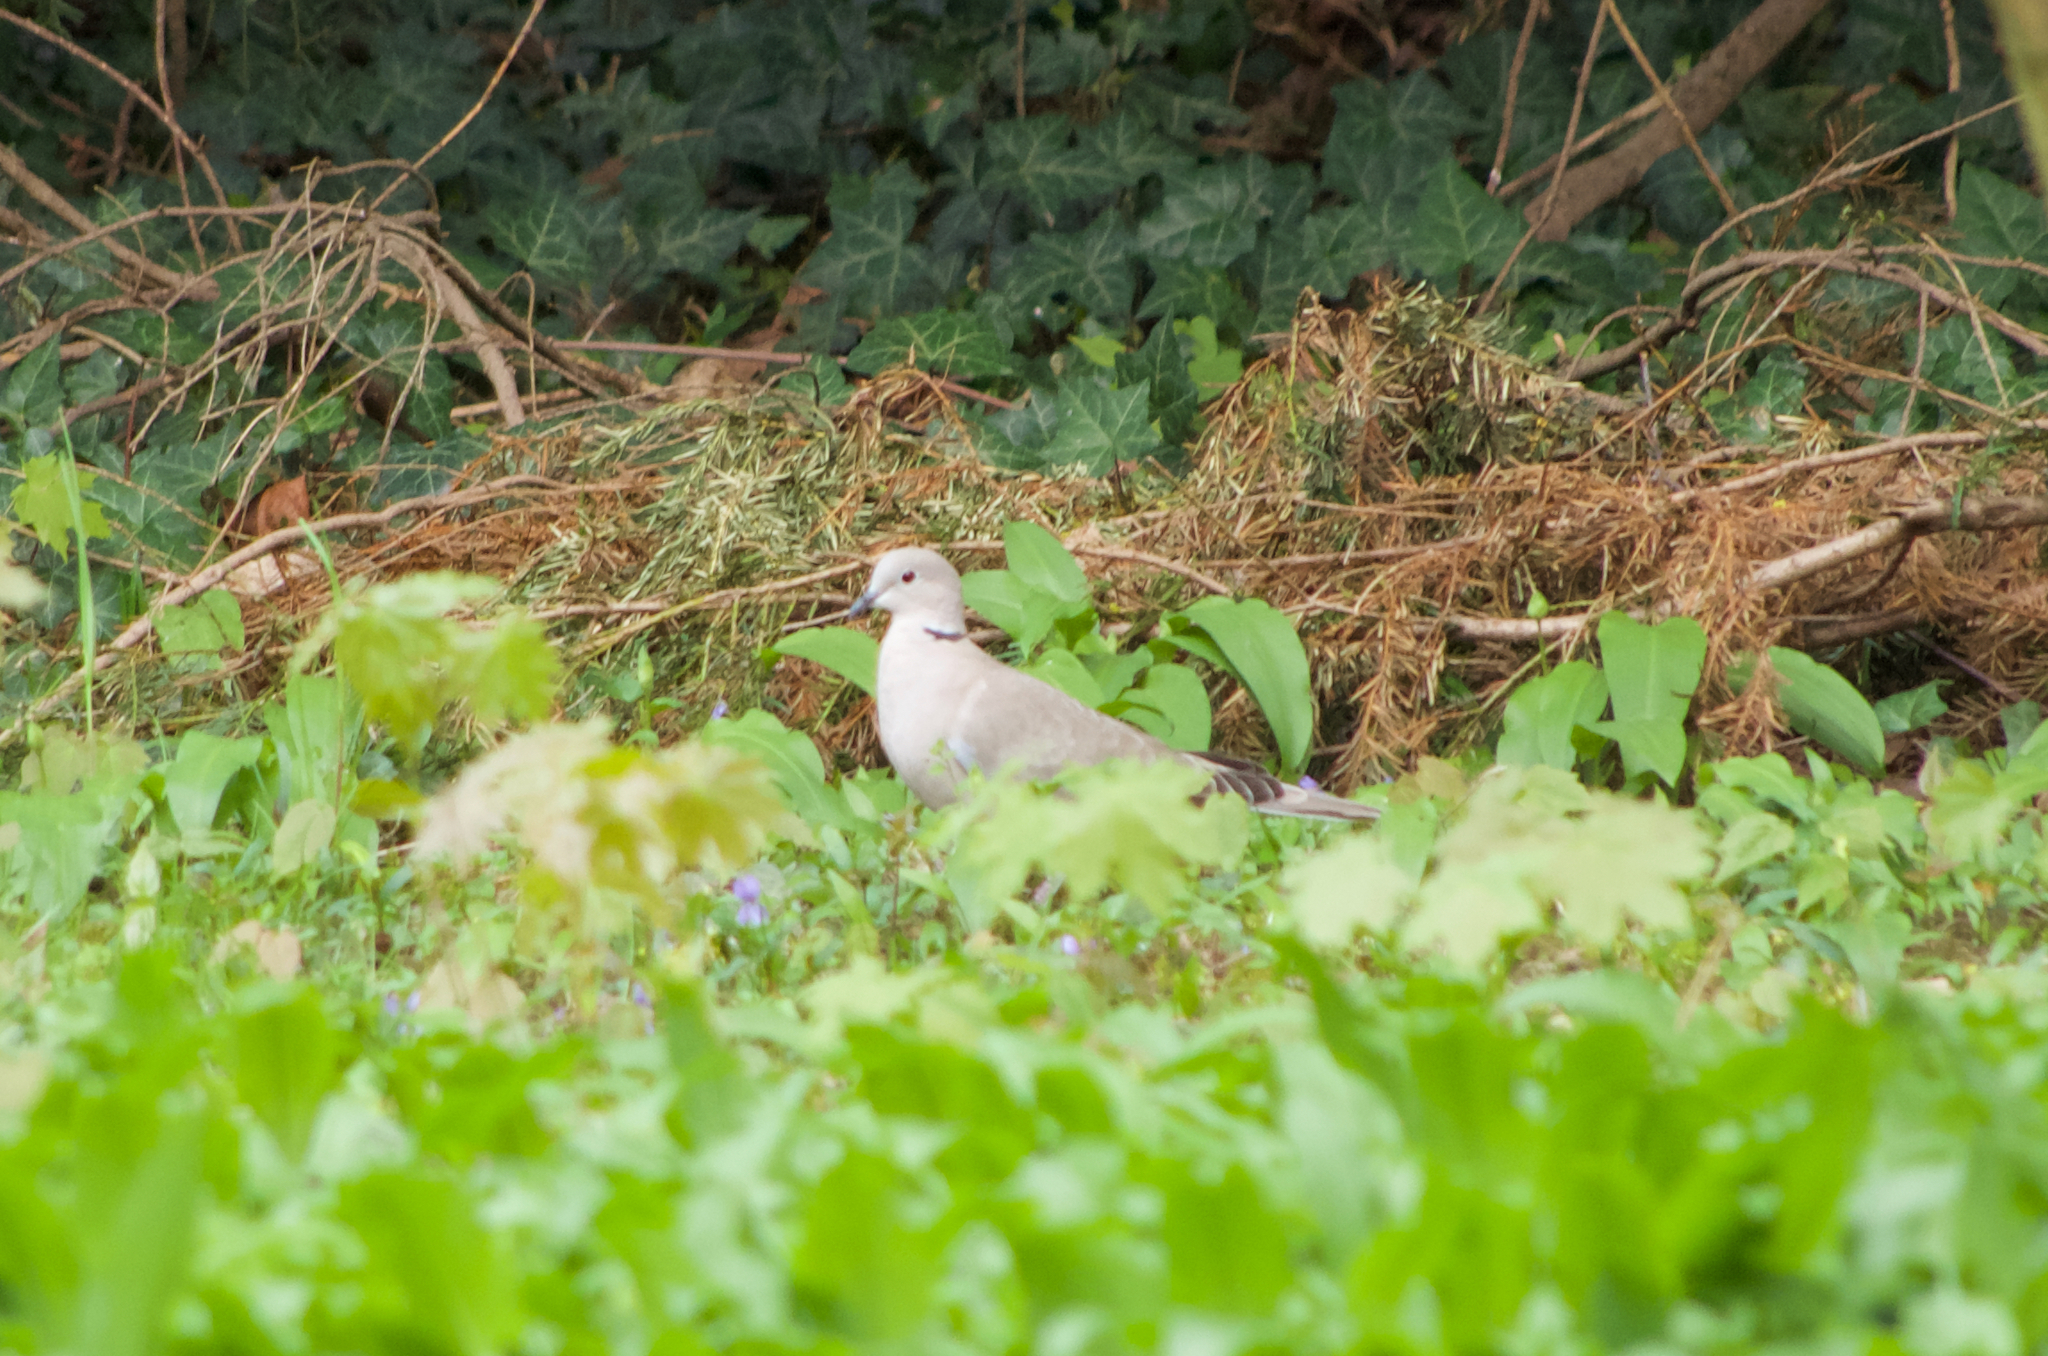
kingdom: Animalia
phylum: Chordata
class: Aves
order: Columbiformes
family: Columbidae
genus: Streptopelia
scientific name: Streptopelia decaocto
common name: Eurasian collared dove
